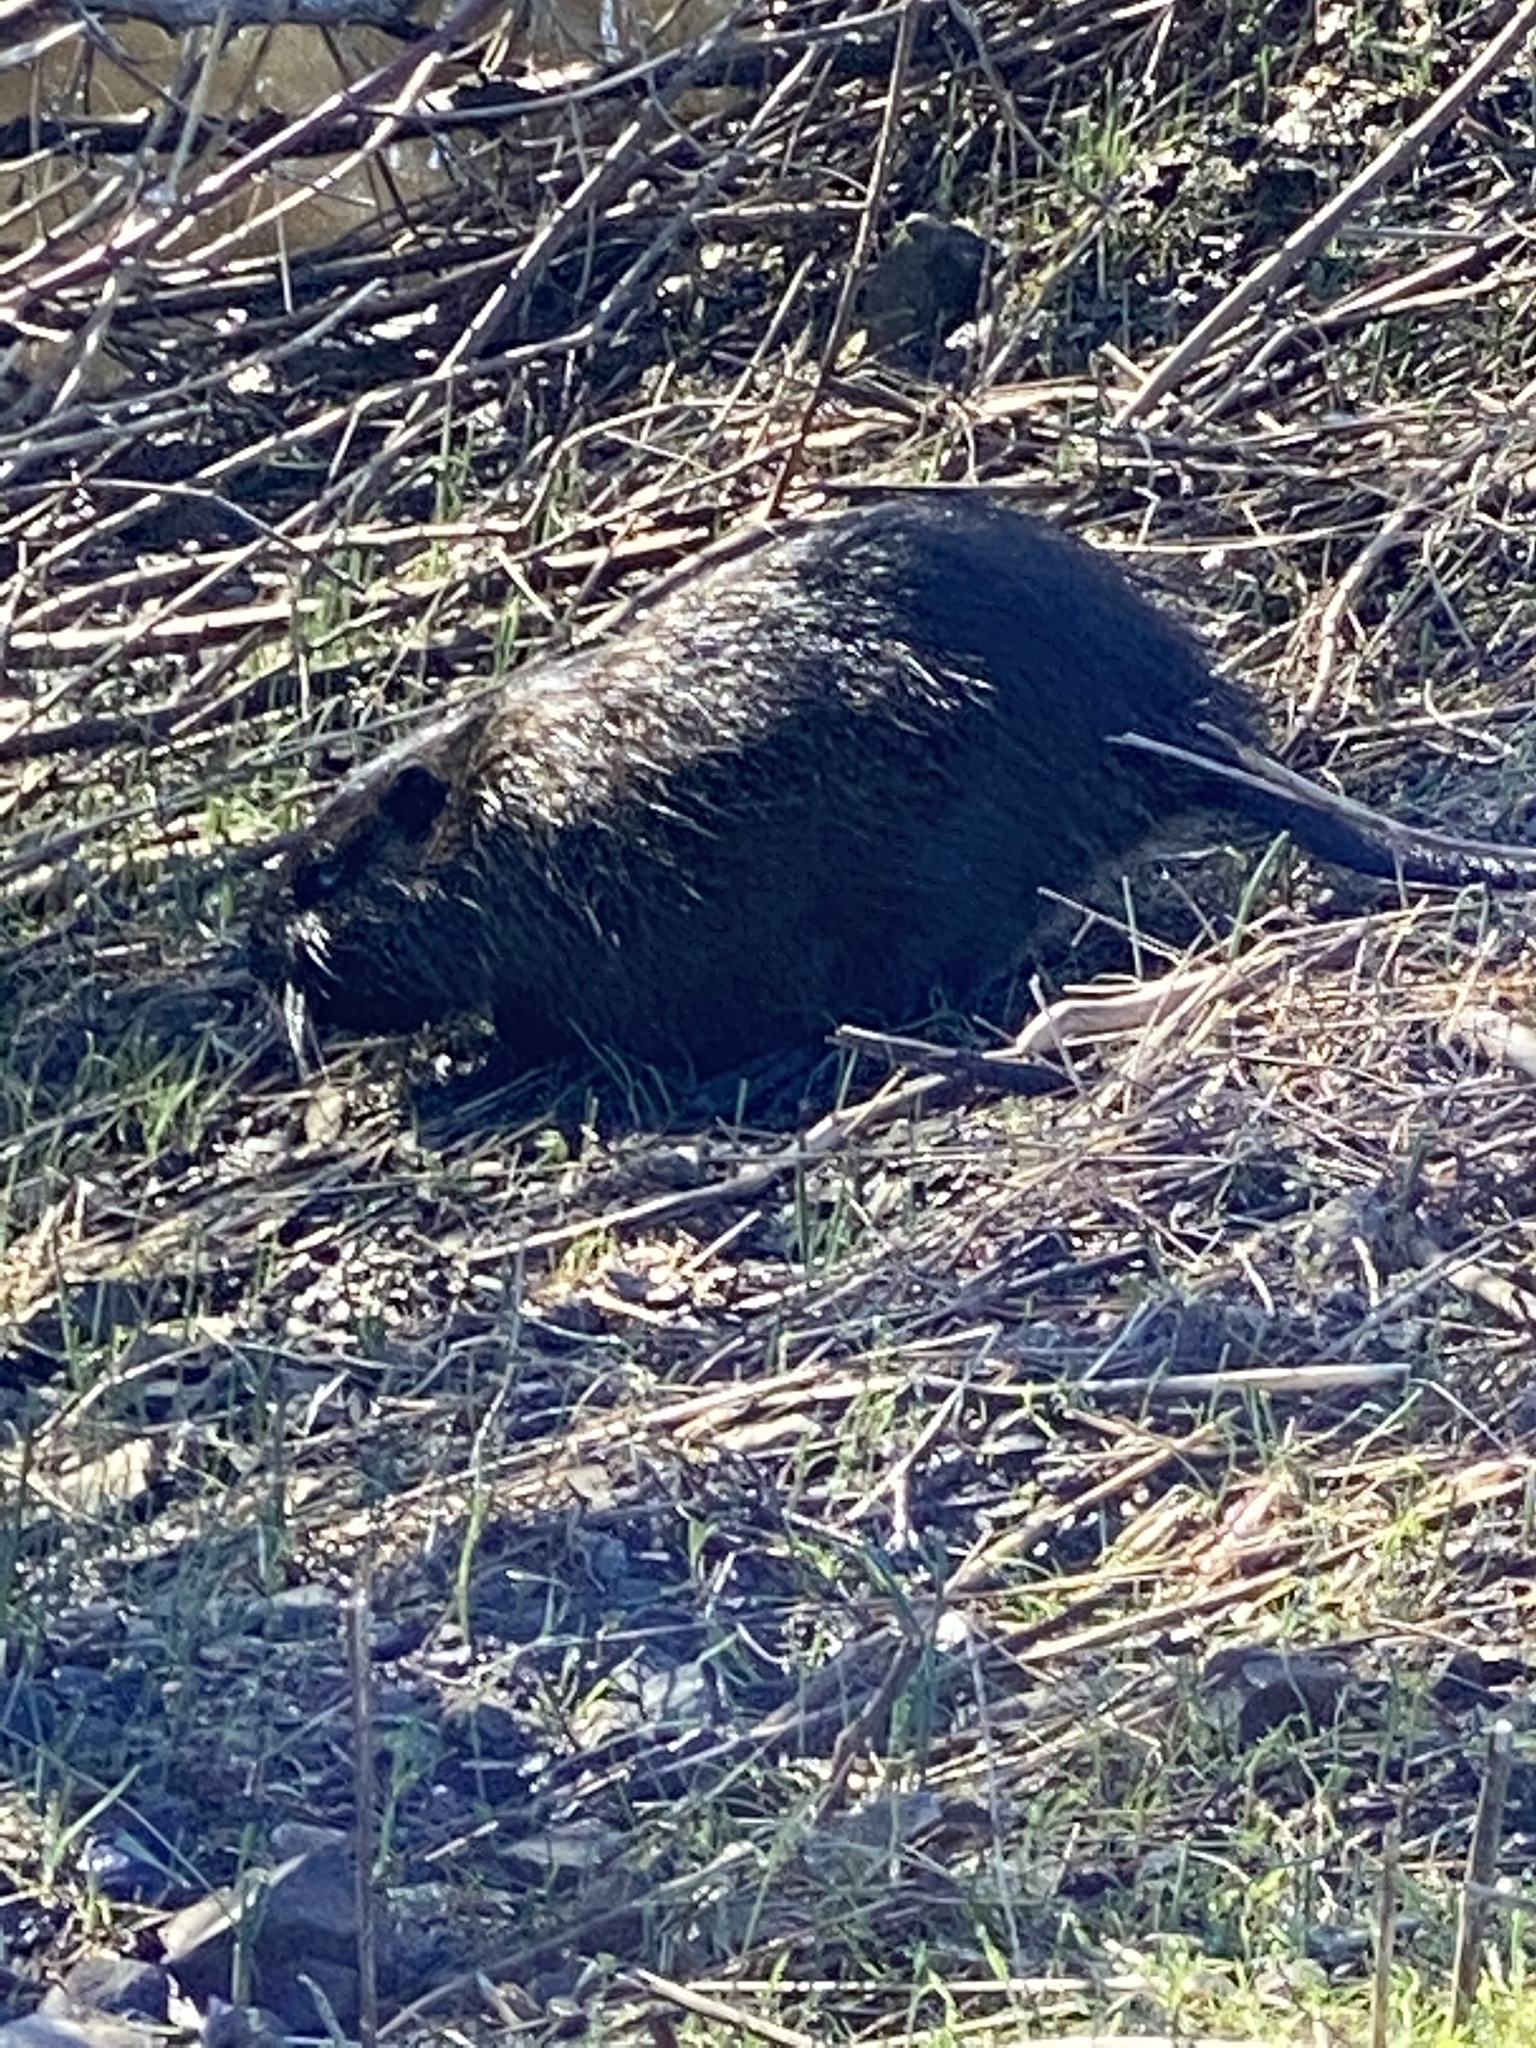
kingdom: Animalia
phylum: Chordata
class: Mammalia
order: Rodentia
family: Myocastoridae
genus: Myocastor
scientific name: Myocastor coypus
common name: Coypu
